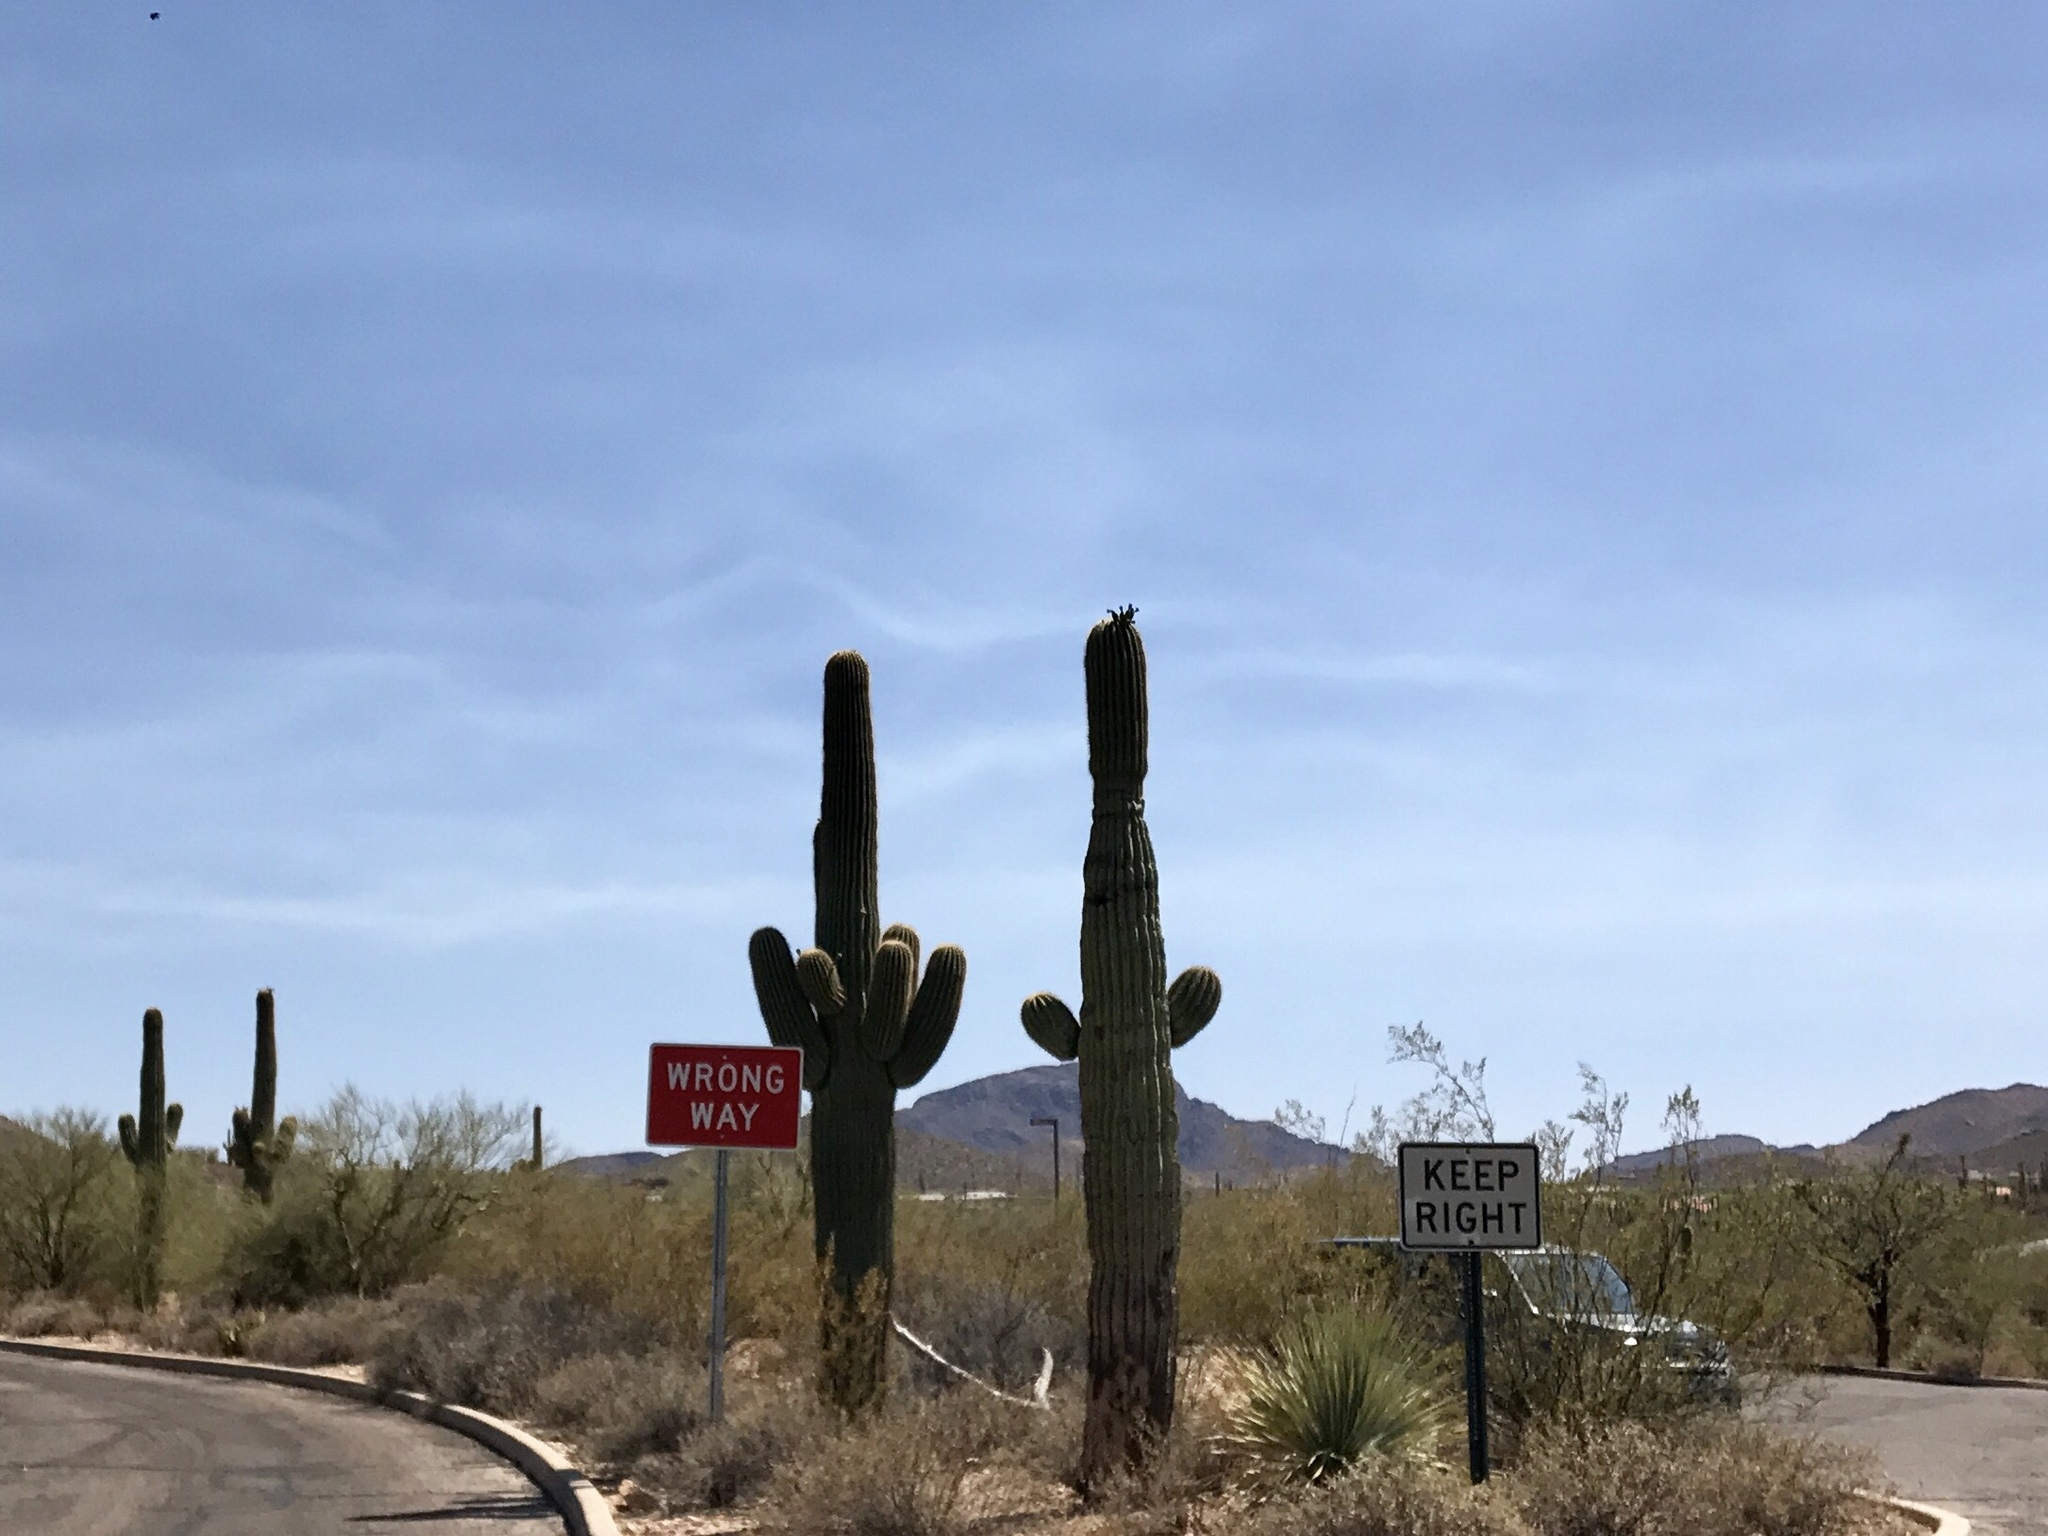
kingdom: Plantae
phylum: Tracheophyta
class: Magnoliopsida
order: Caryophyllales
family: Cactaceae
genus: Carnegiea
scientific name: Carnegiea gigantea
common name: Saguaro
